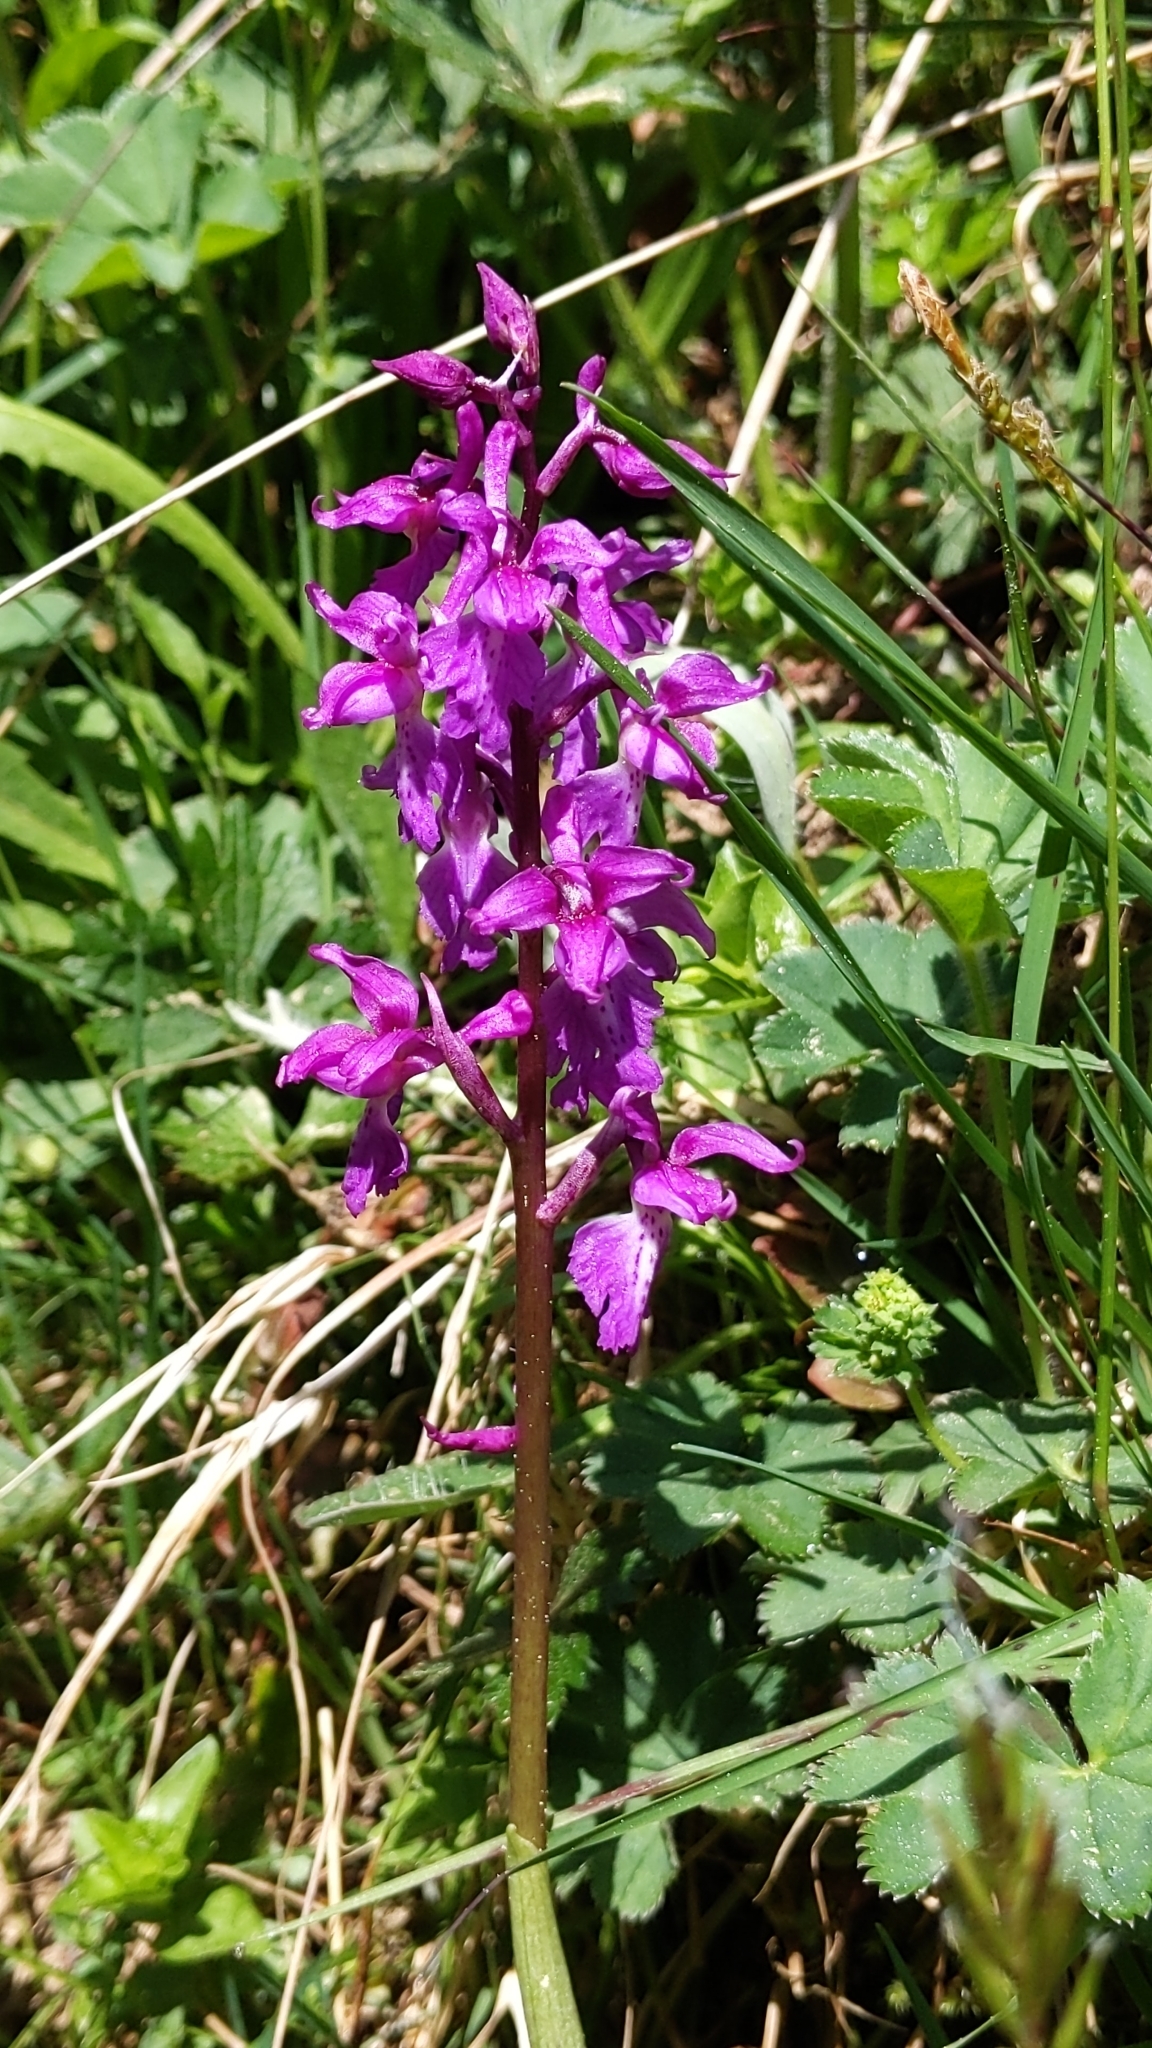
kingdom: Plantae
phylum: Tracheophyta
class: Liliopsida
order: Asparagales
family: Orchidaceae
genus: Orchis
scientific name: Orchis mascula
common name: Early-purple orchid
